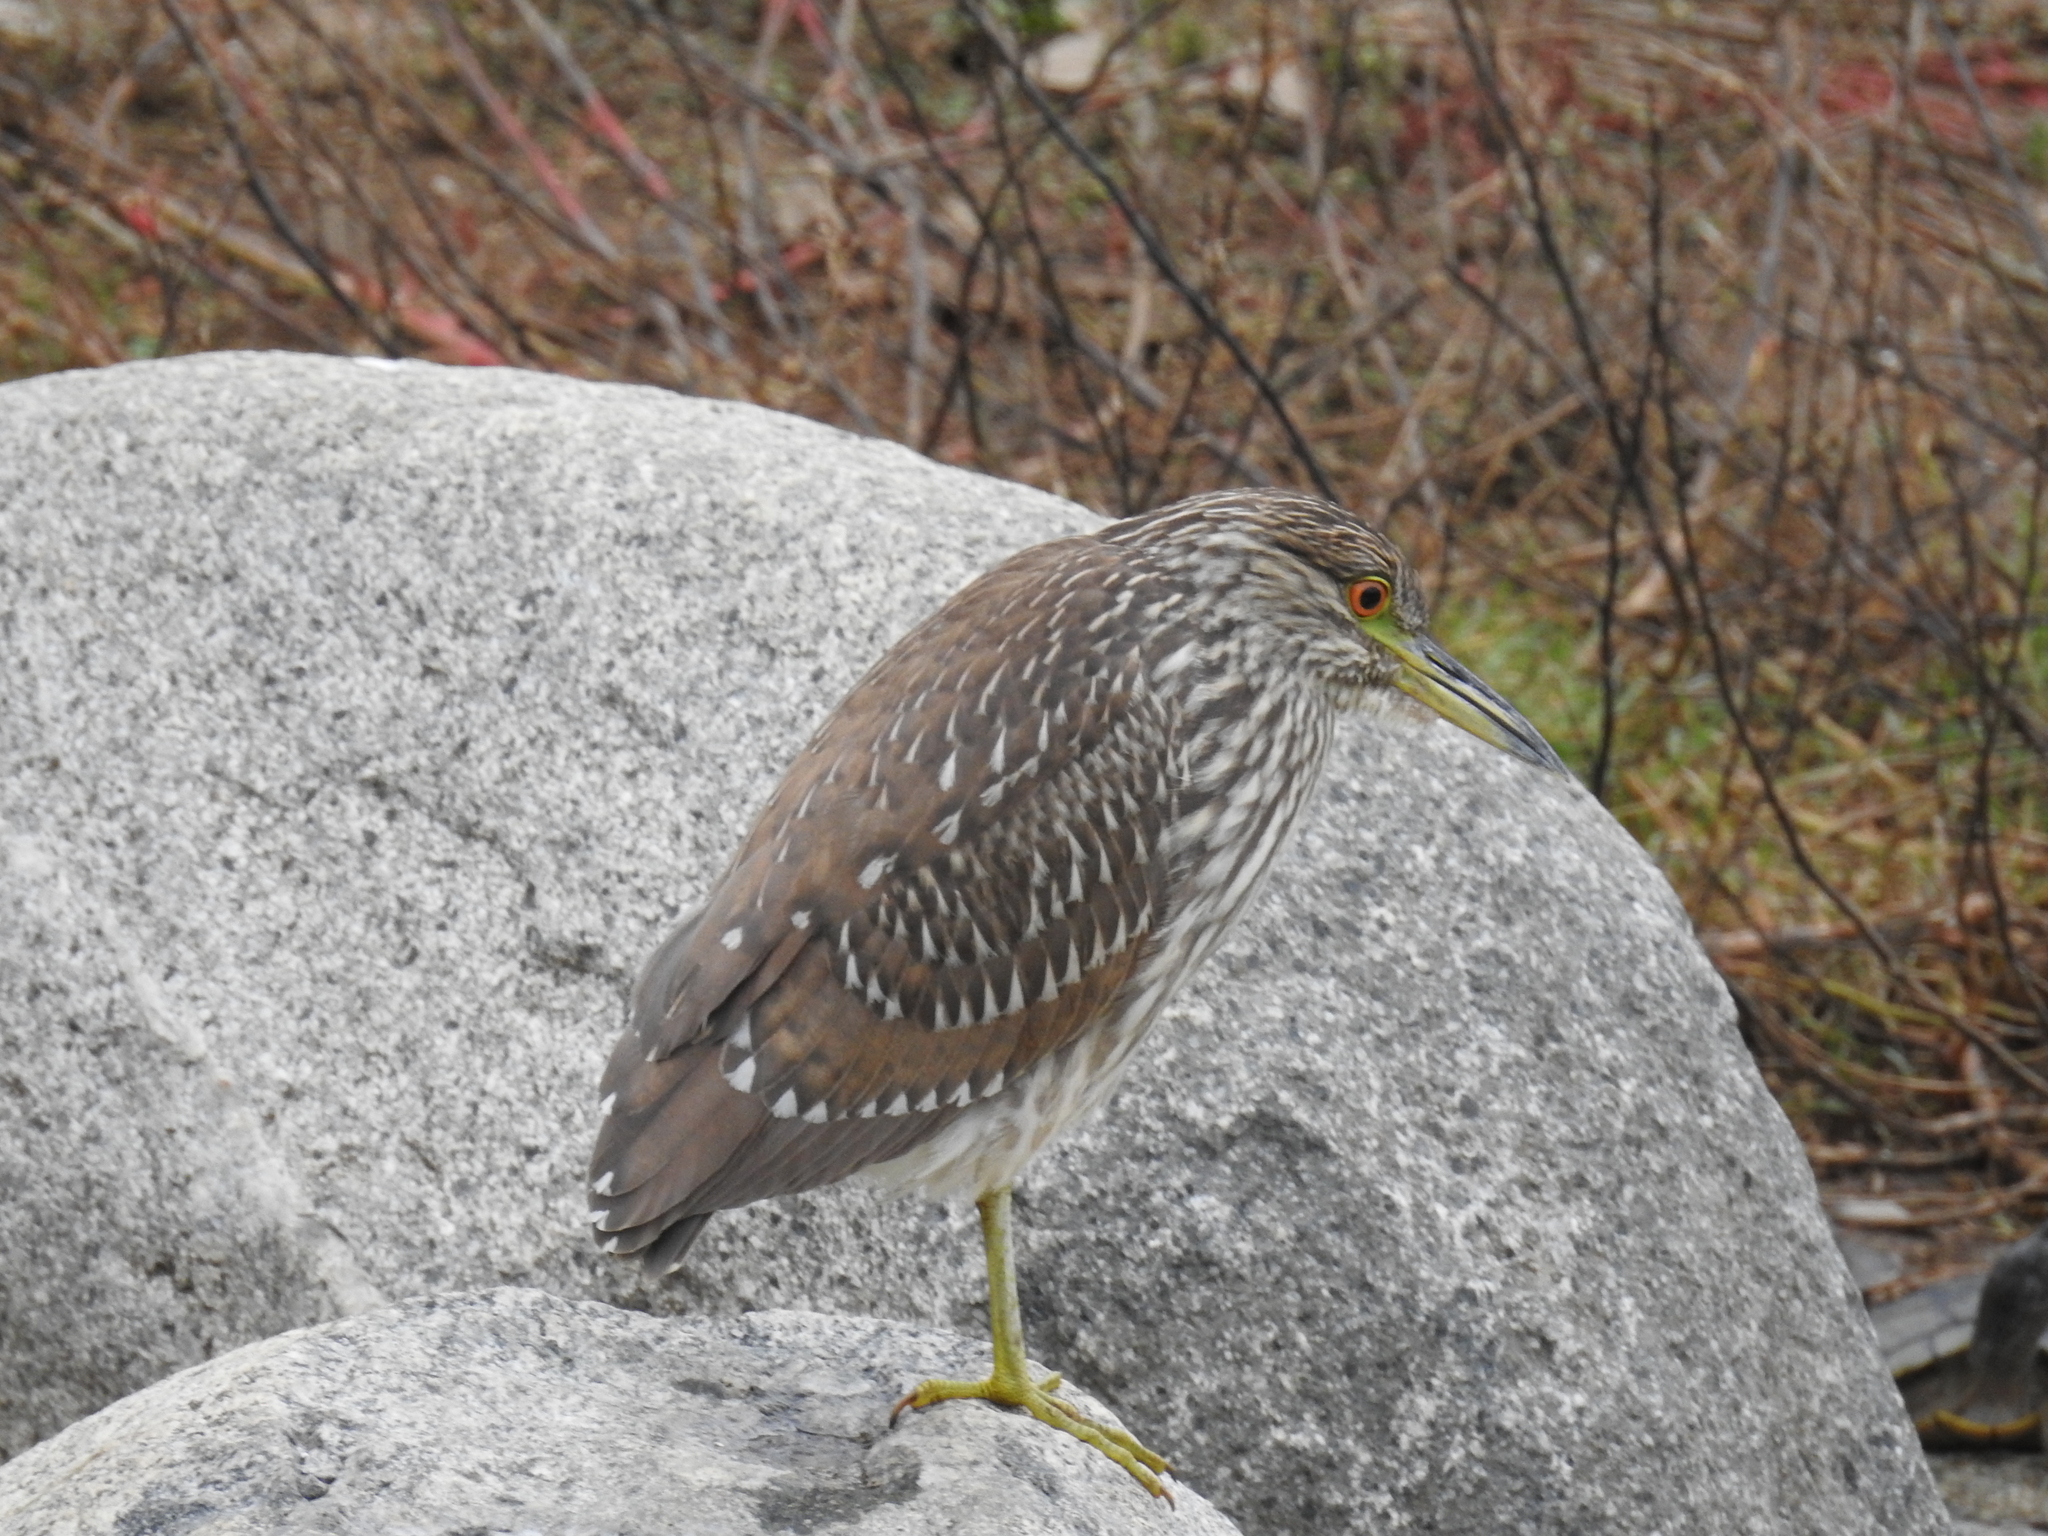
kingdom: Animalia
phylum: Chordata
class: Aves
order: Pelecaniformes
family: Ardeidae
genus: Nycticorax
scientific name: Nycticorax nycticorax
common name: Black-crowned night heron
